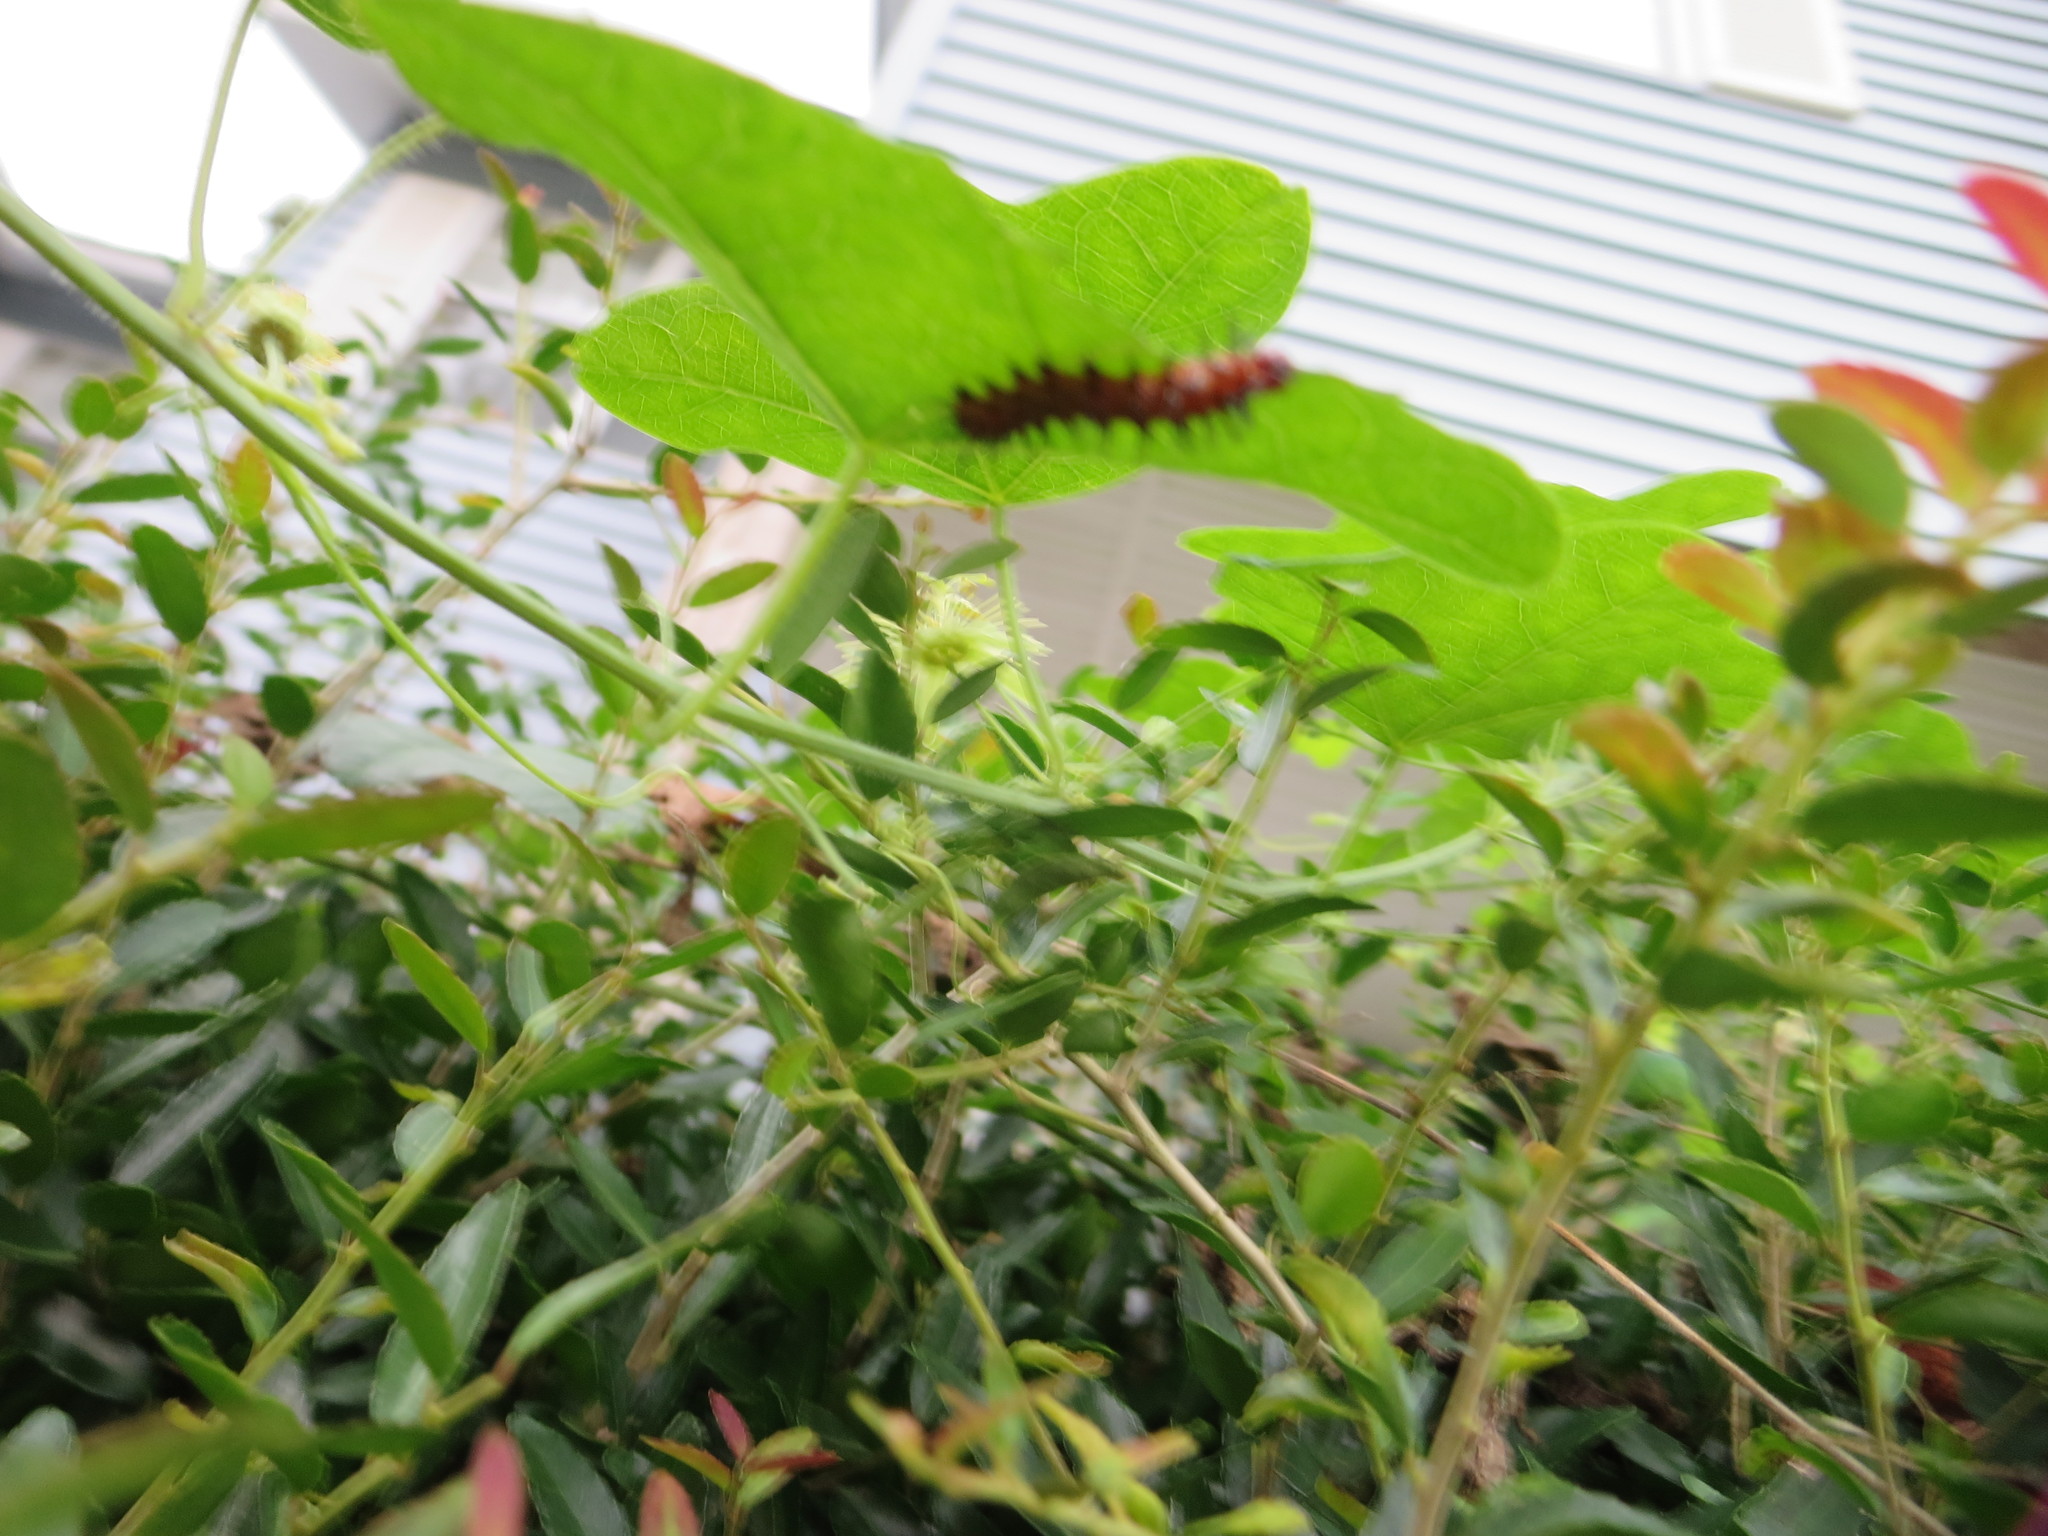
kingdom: Animalia
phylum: Arthropoda
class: Insecta
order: Lepidoptera
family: Nymphalidae
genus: Dione
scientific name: Dione vanillae
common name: Gulf fritillary
